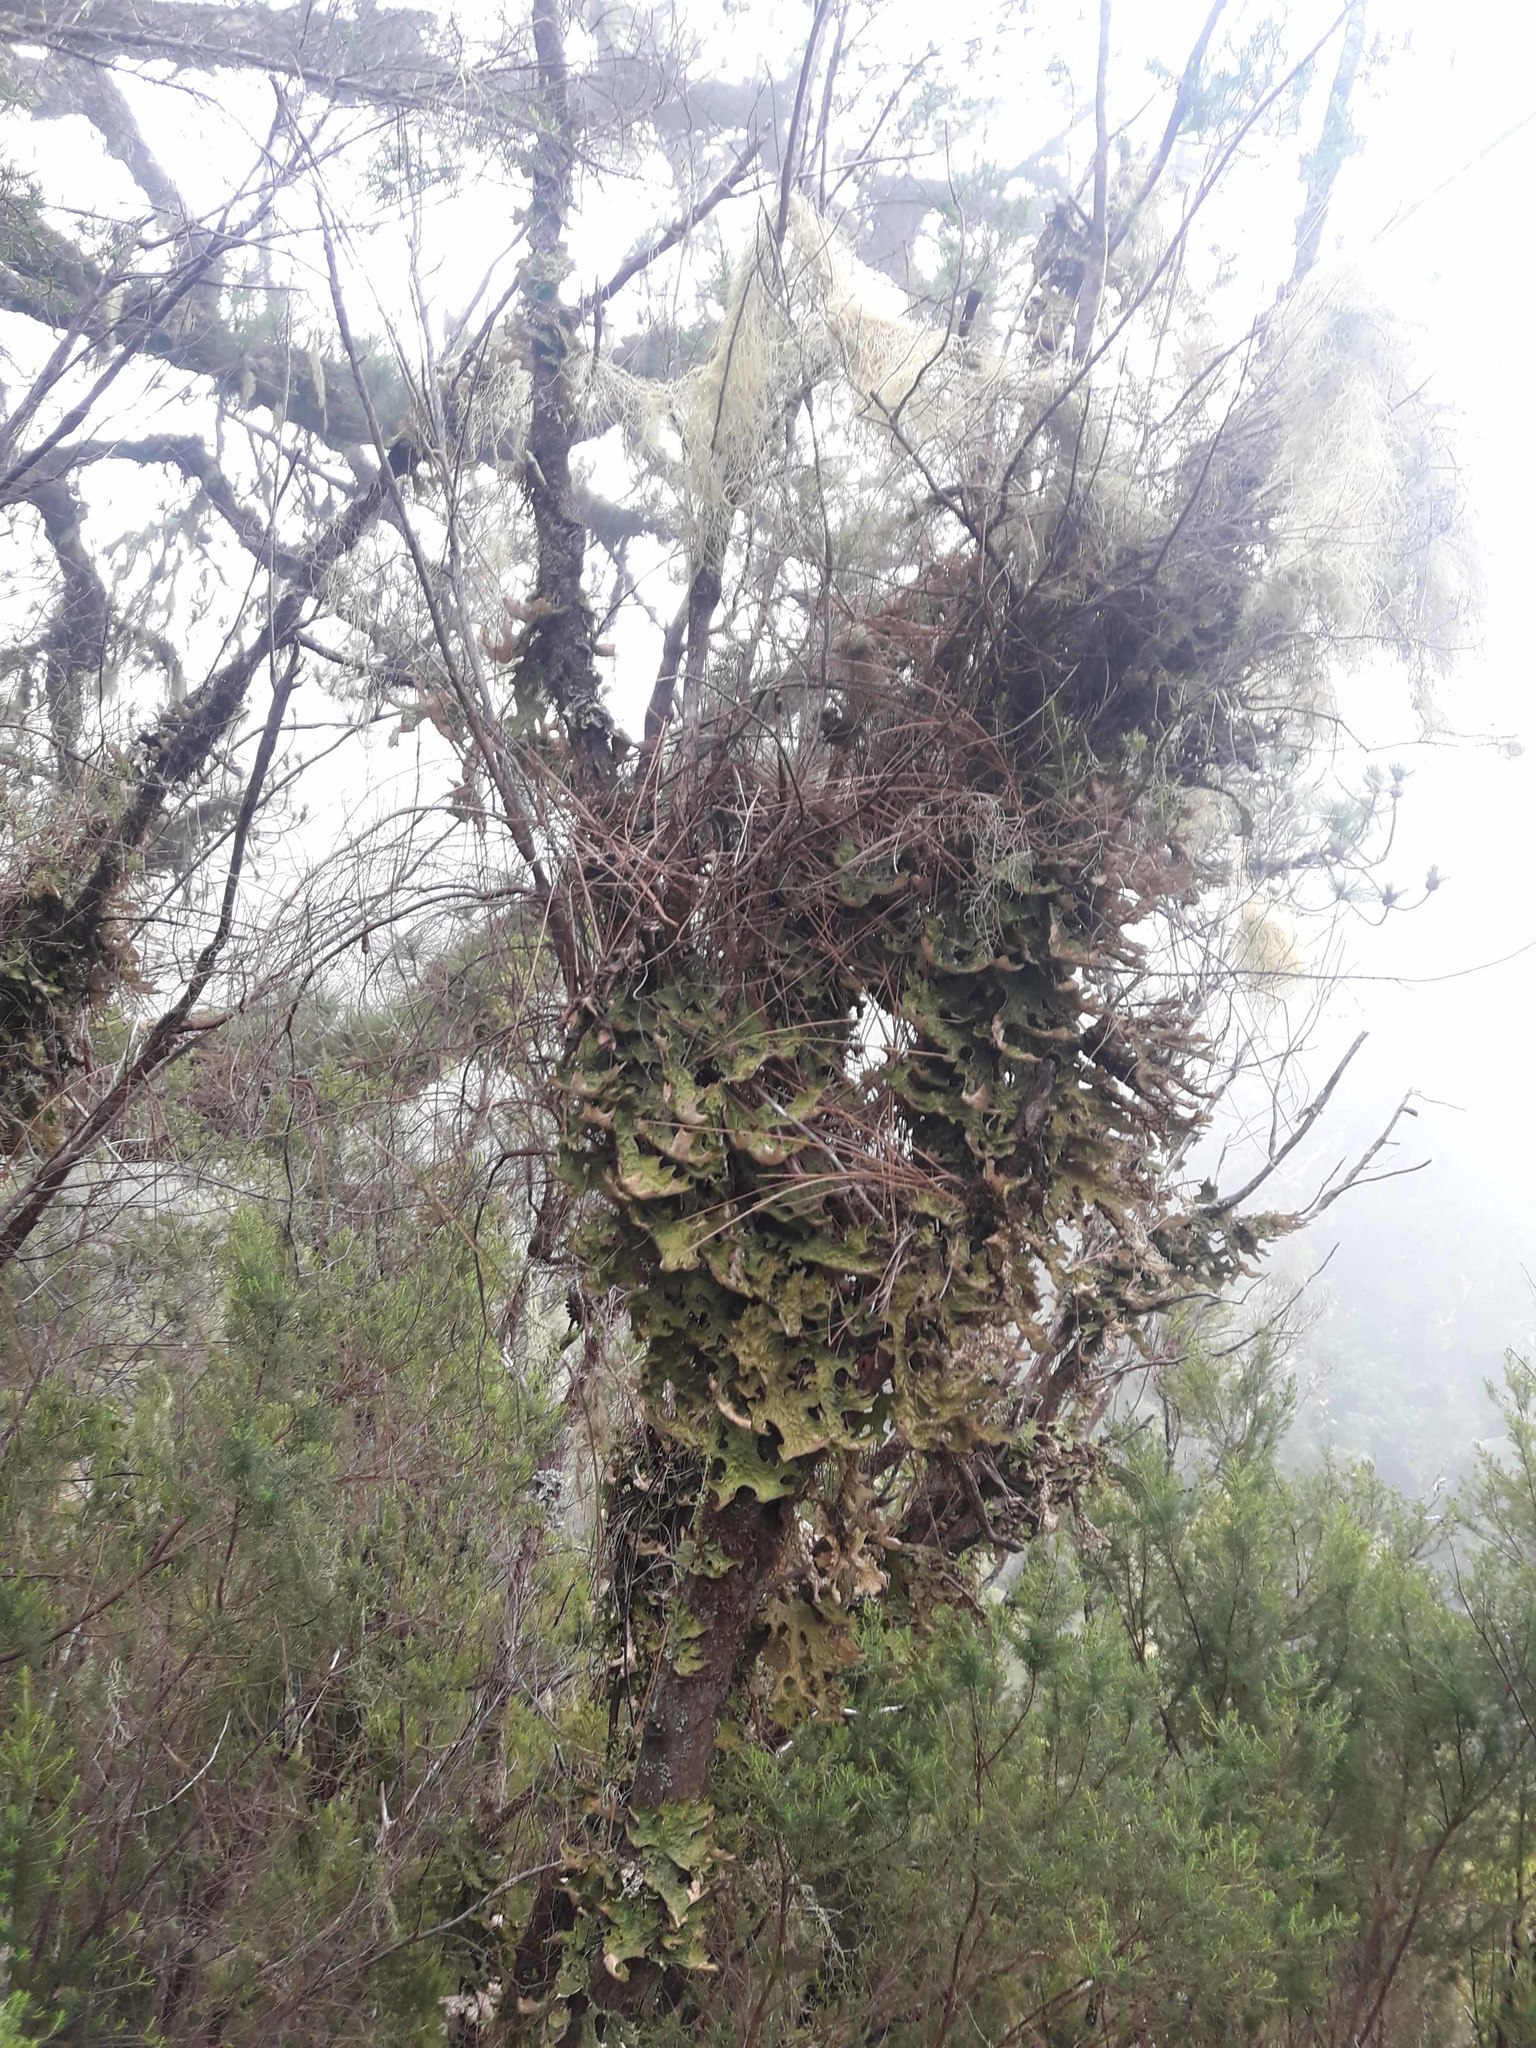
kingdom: Fungi
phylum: Ascomycota
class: Lecanoromycetes
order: Peltigerales
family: Lobariaceae
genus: Lobaria
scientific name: Lobaria pulmonaria
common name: Lungwort
